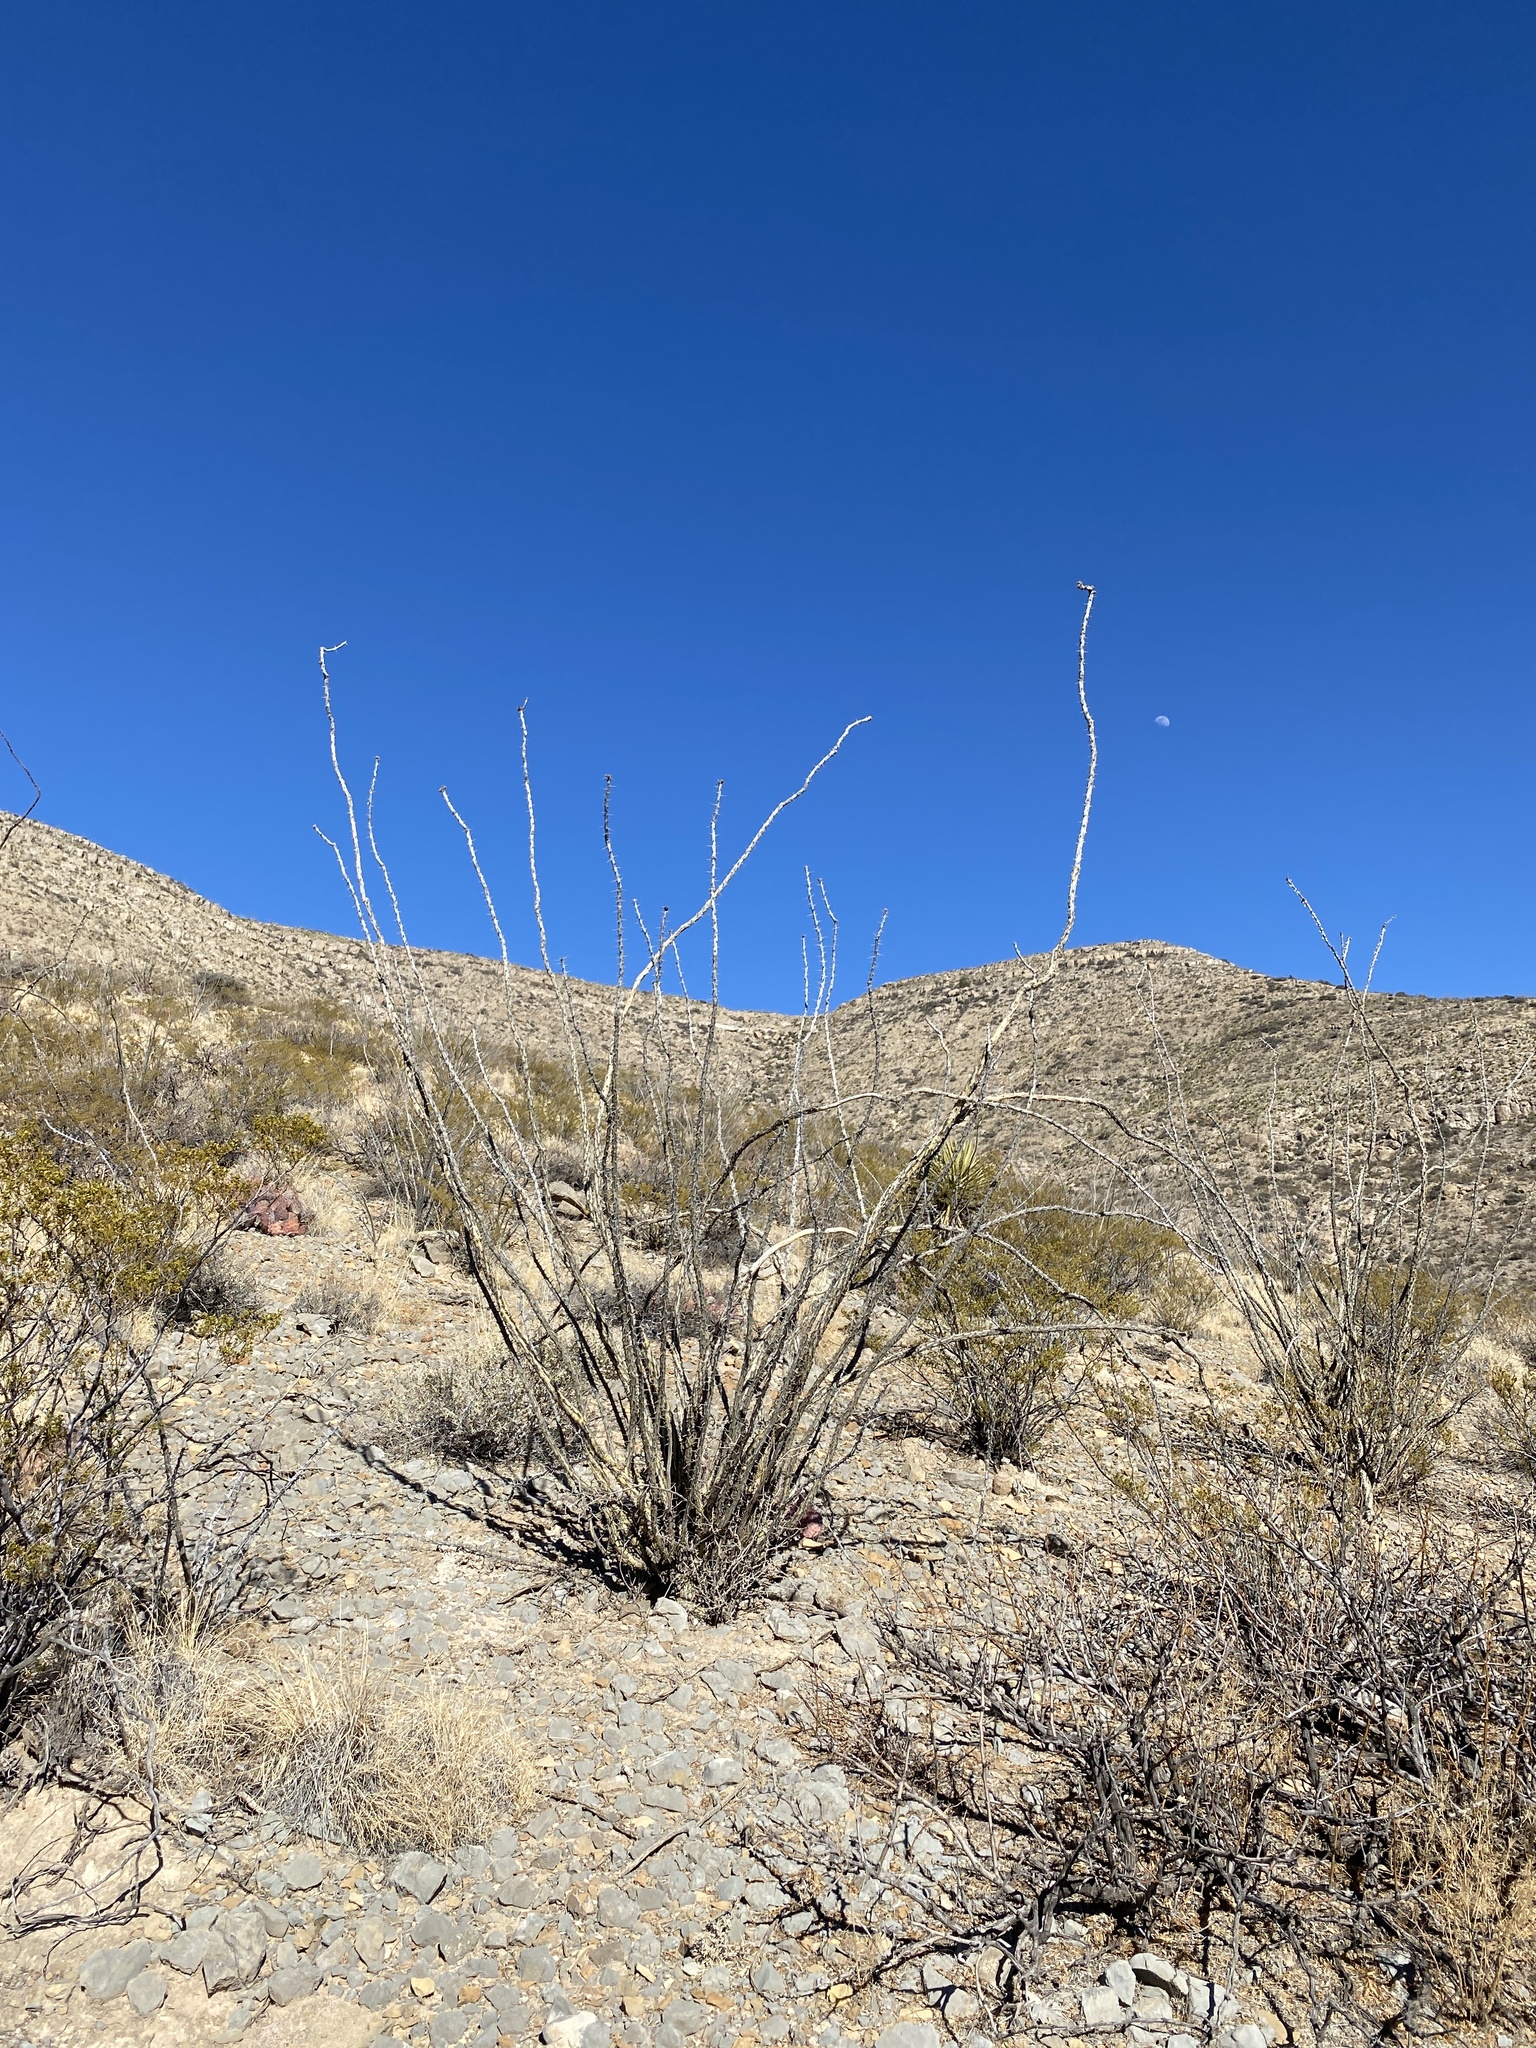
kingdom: Plantae
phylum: Tracheophyta
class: Magnoliopsida
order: Ericales
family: Fouquieriaceae
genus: Fouquieria
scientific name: Fouquieria splendens
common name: Vine-cactus
